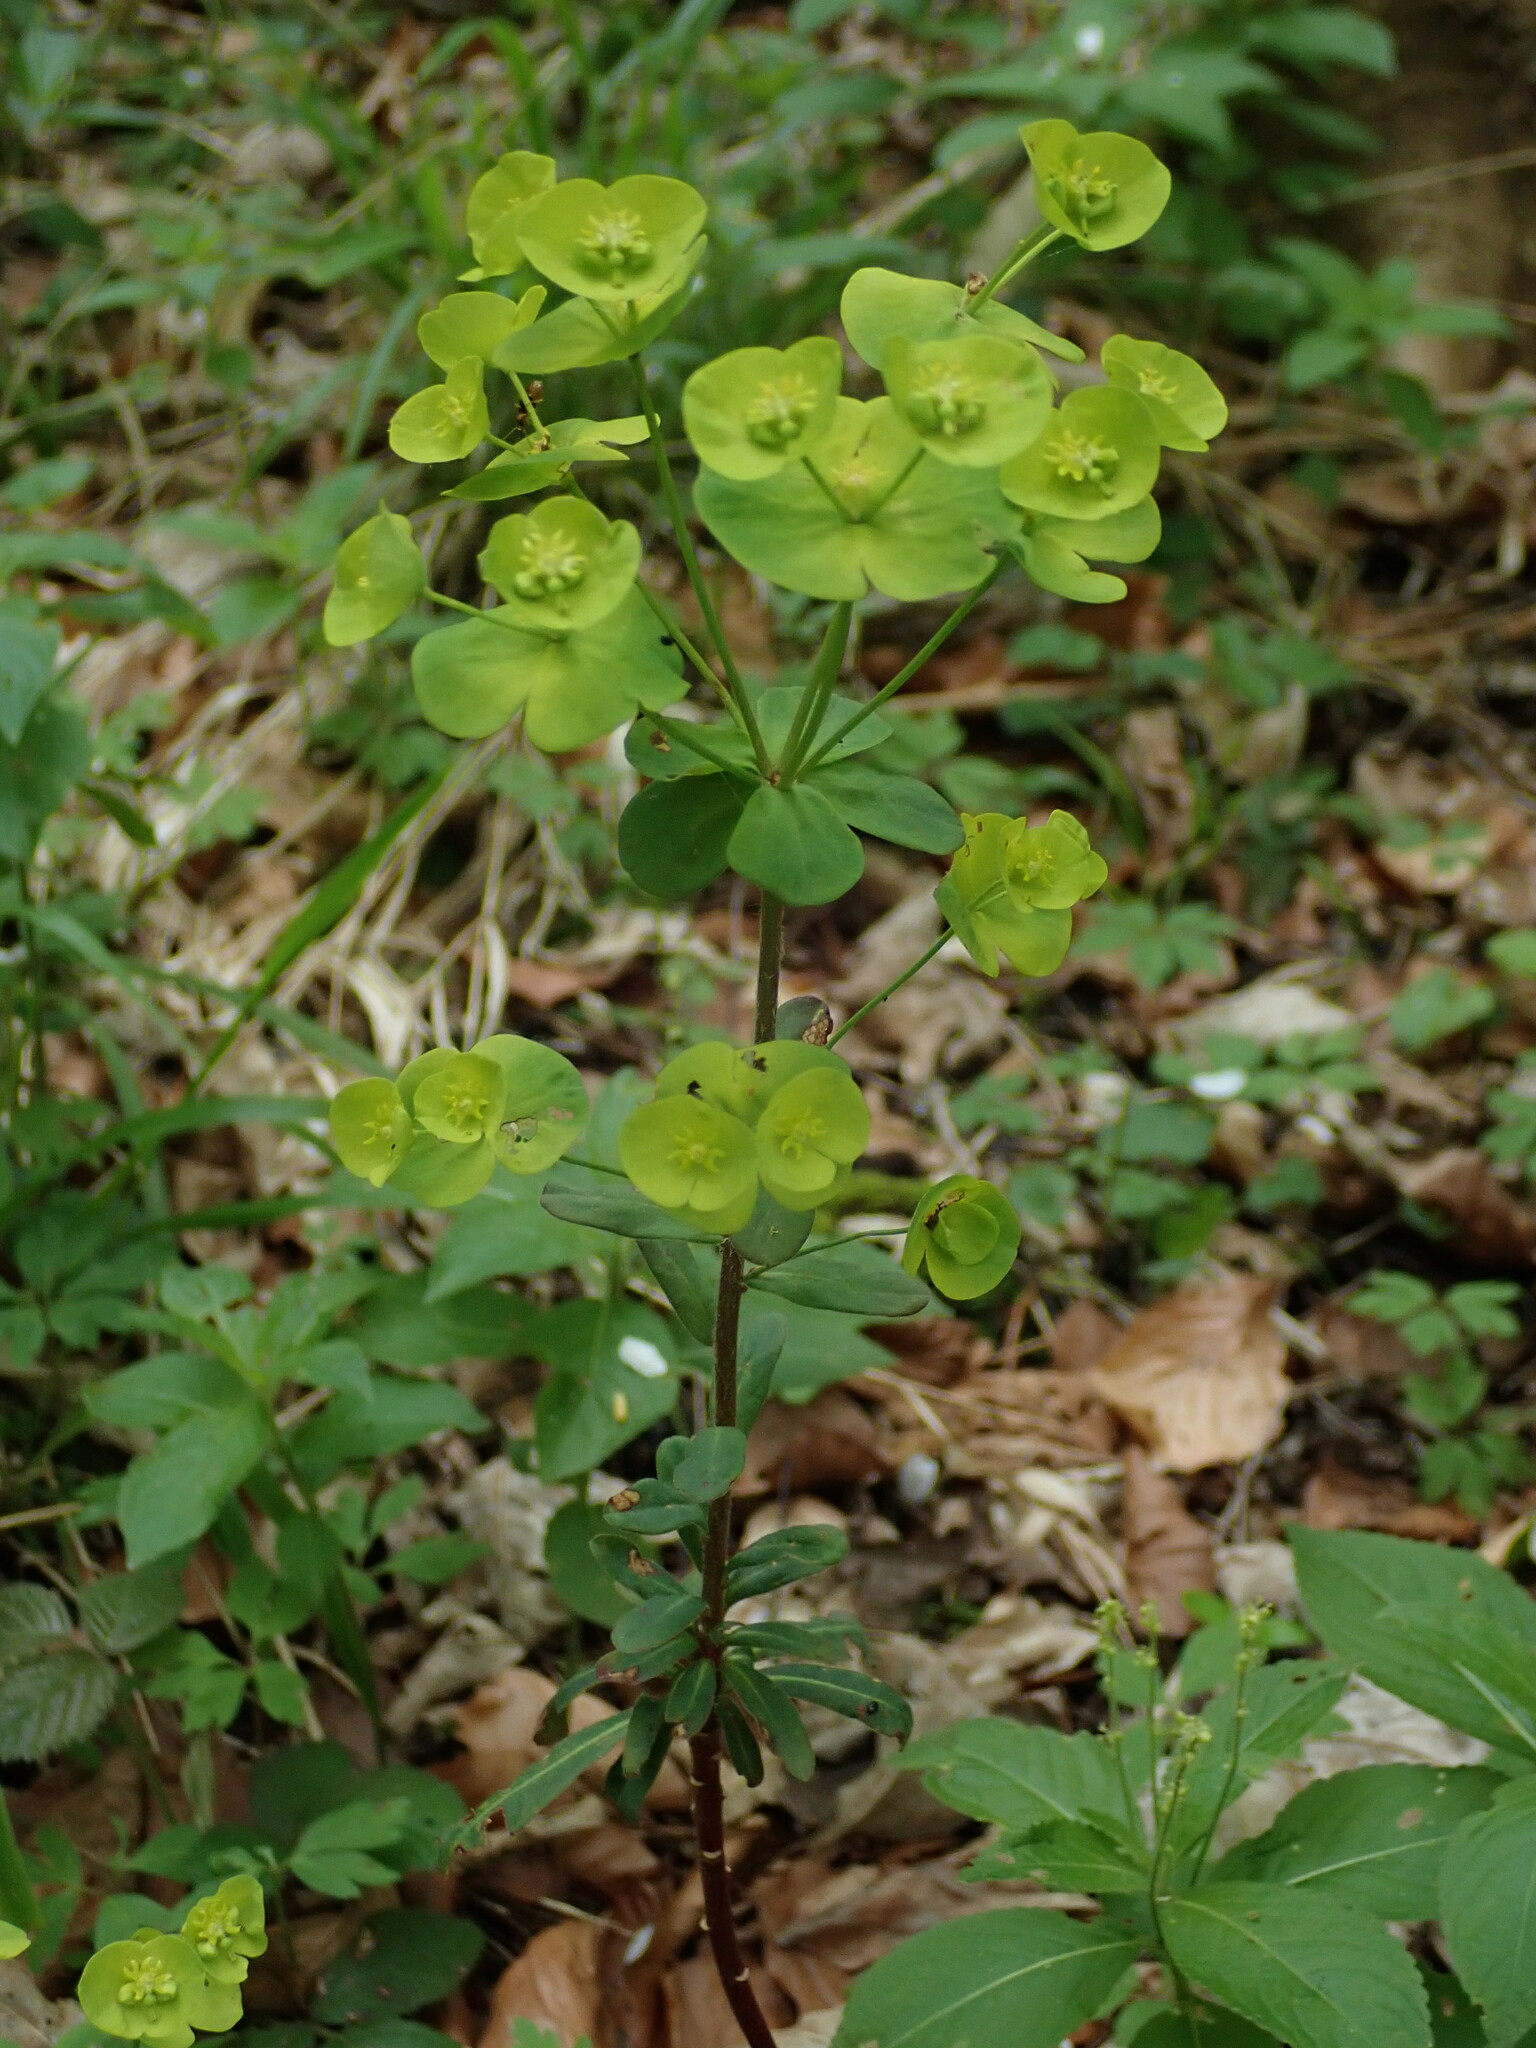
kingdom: Plantae
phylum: Tracheophyta
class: Magnoliopsida
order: Malpighiales
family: Euphorbiaceae
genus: Euphorbia
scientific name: Euphorbia amygdaloides
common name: Wood spurge
